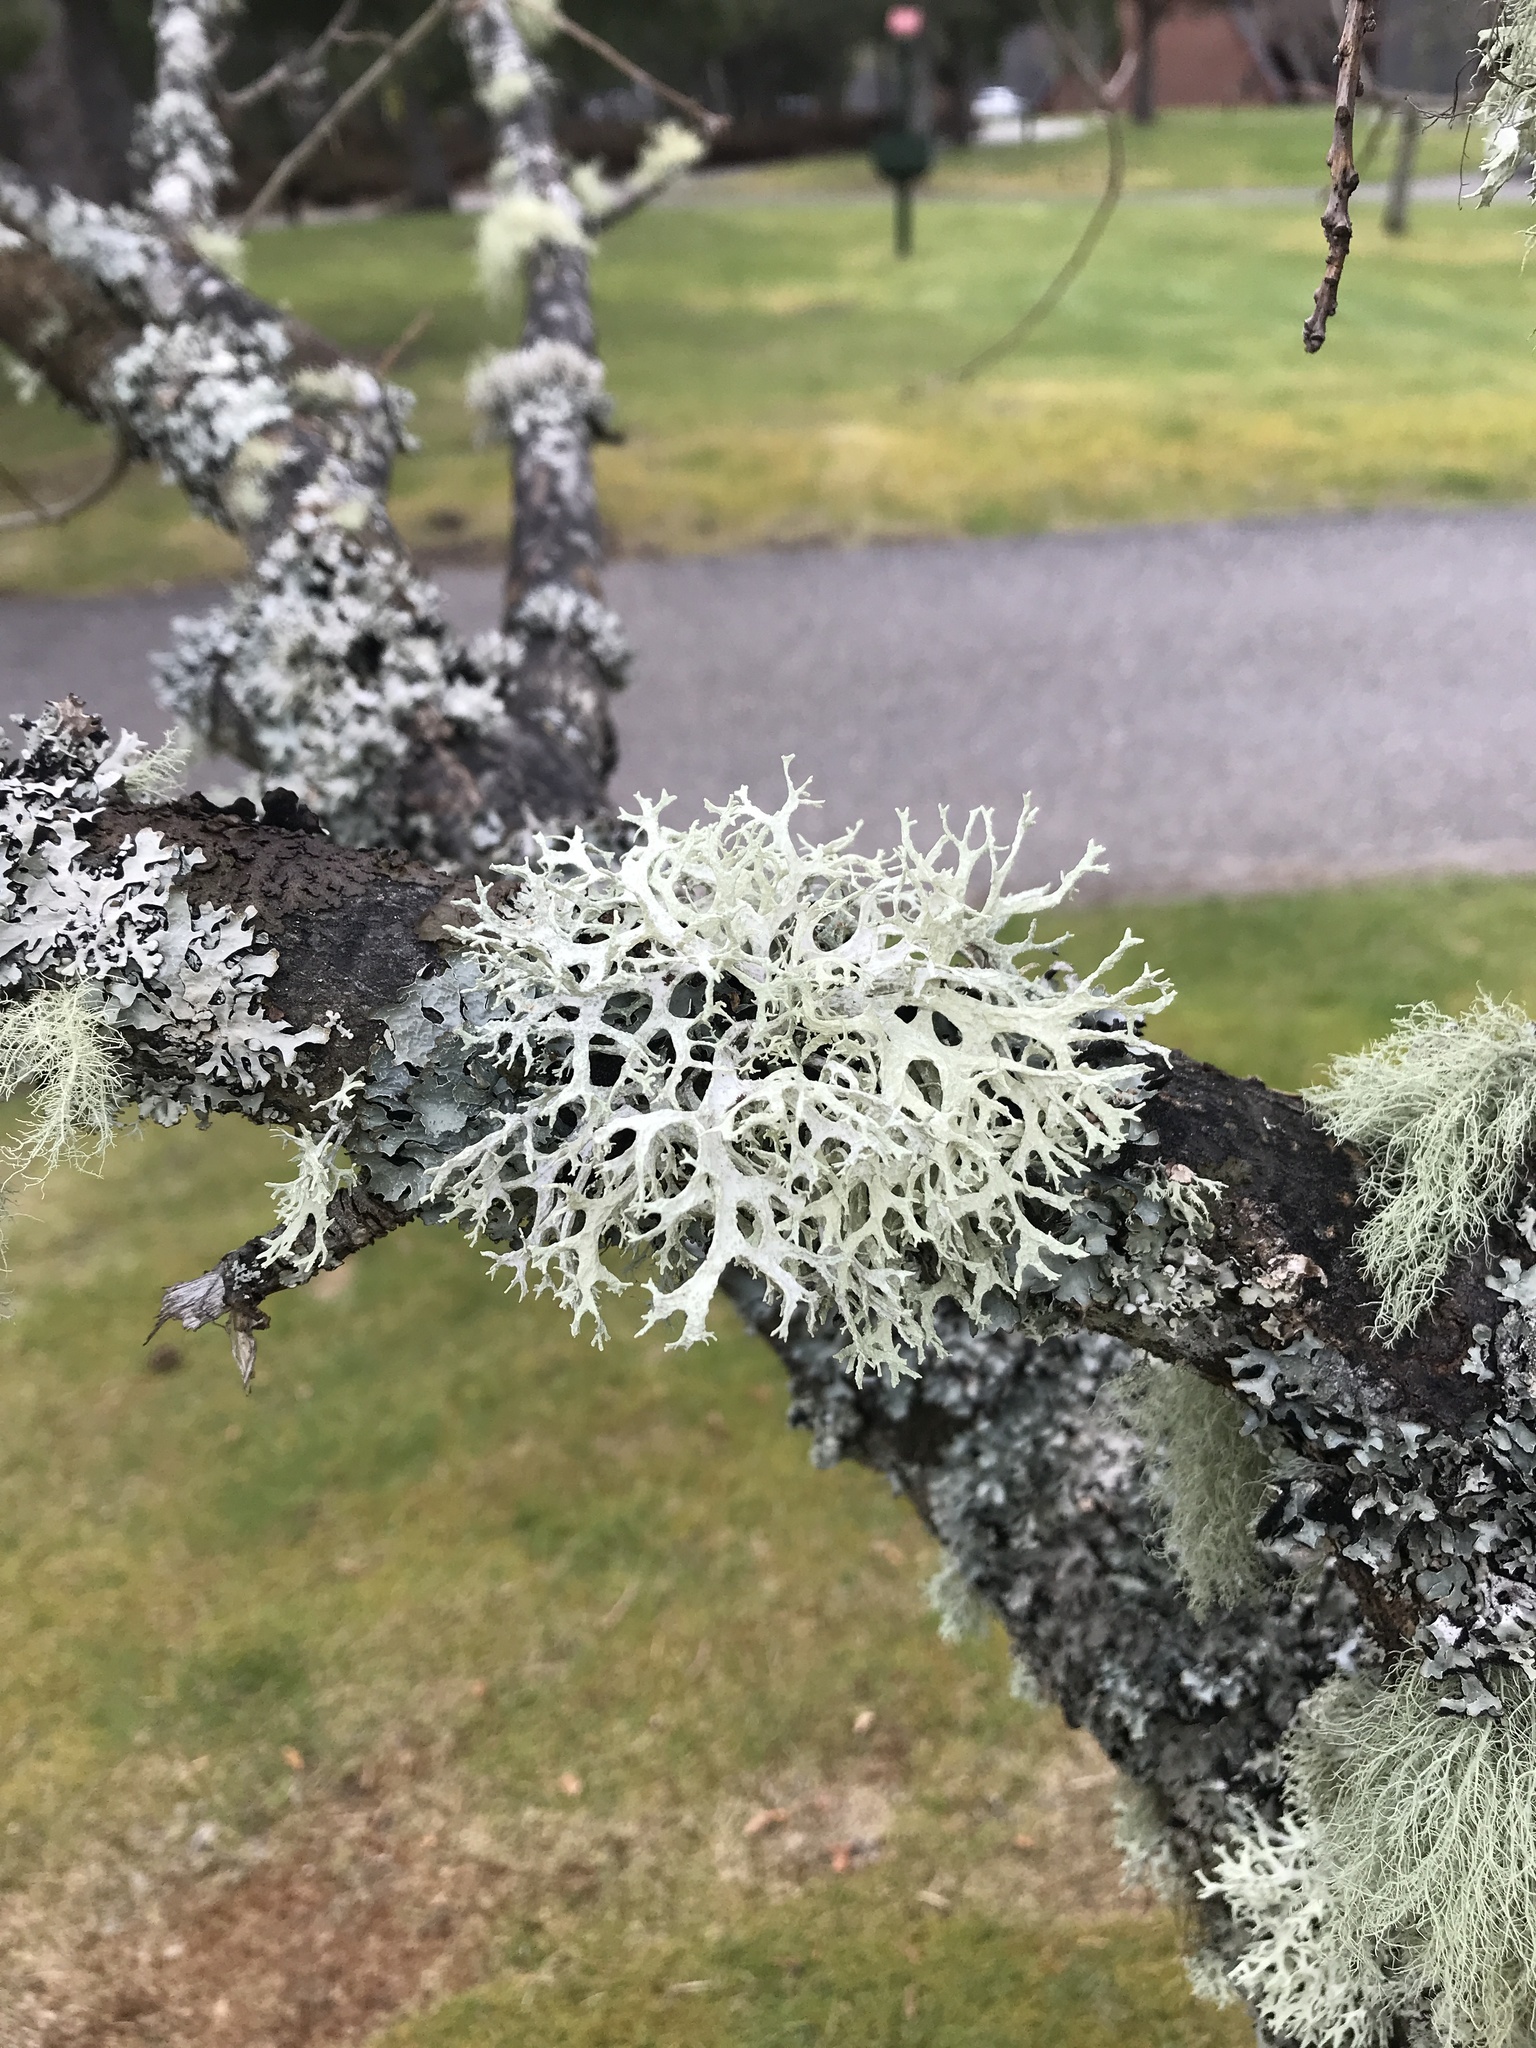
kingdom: Fungi
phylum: Ascomycota
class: Lecanoromycetes
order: Lecanorales
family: Parmeliaceae
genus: Evernia
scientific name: Evernia prunastri
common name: Oak moss
